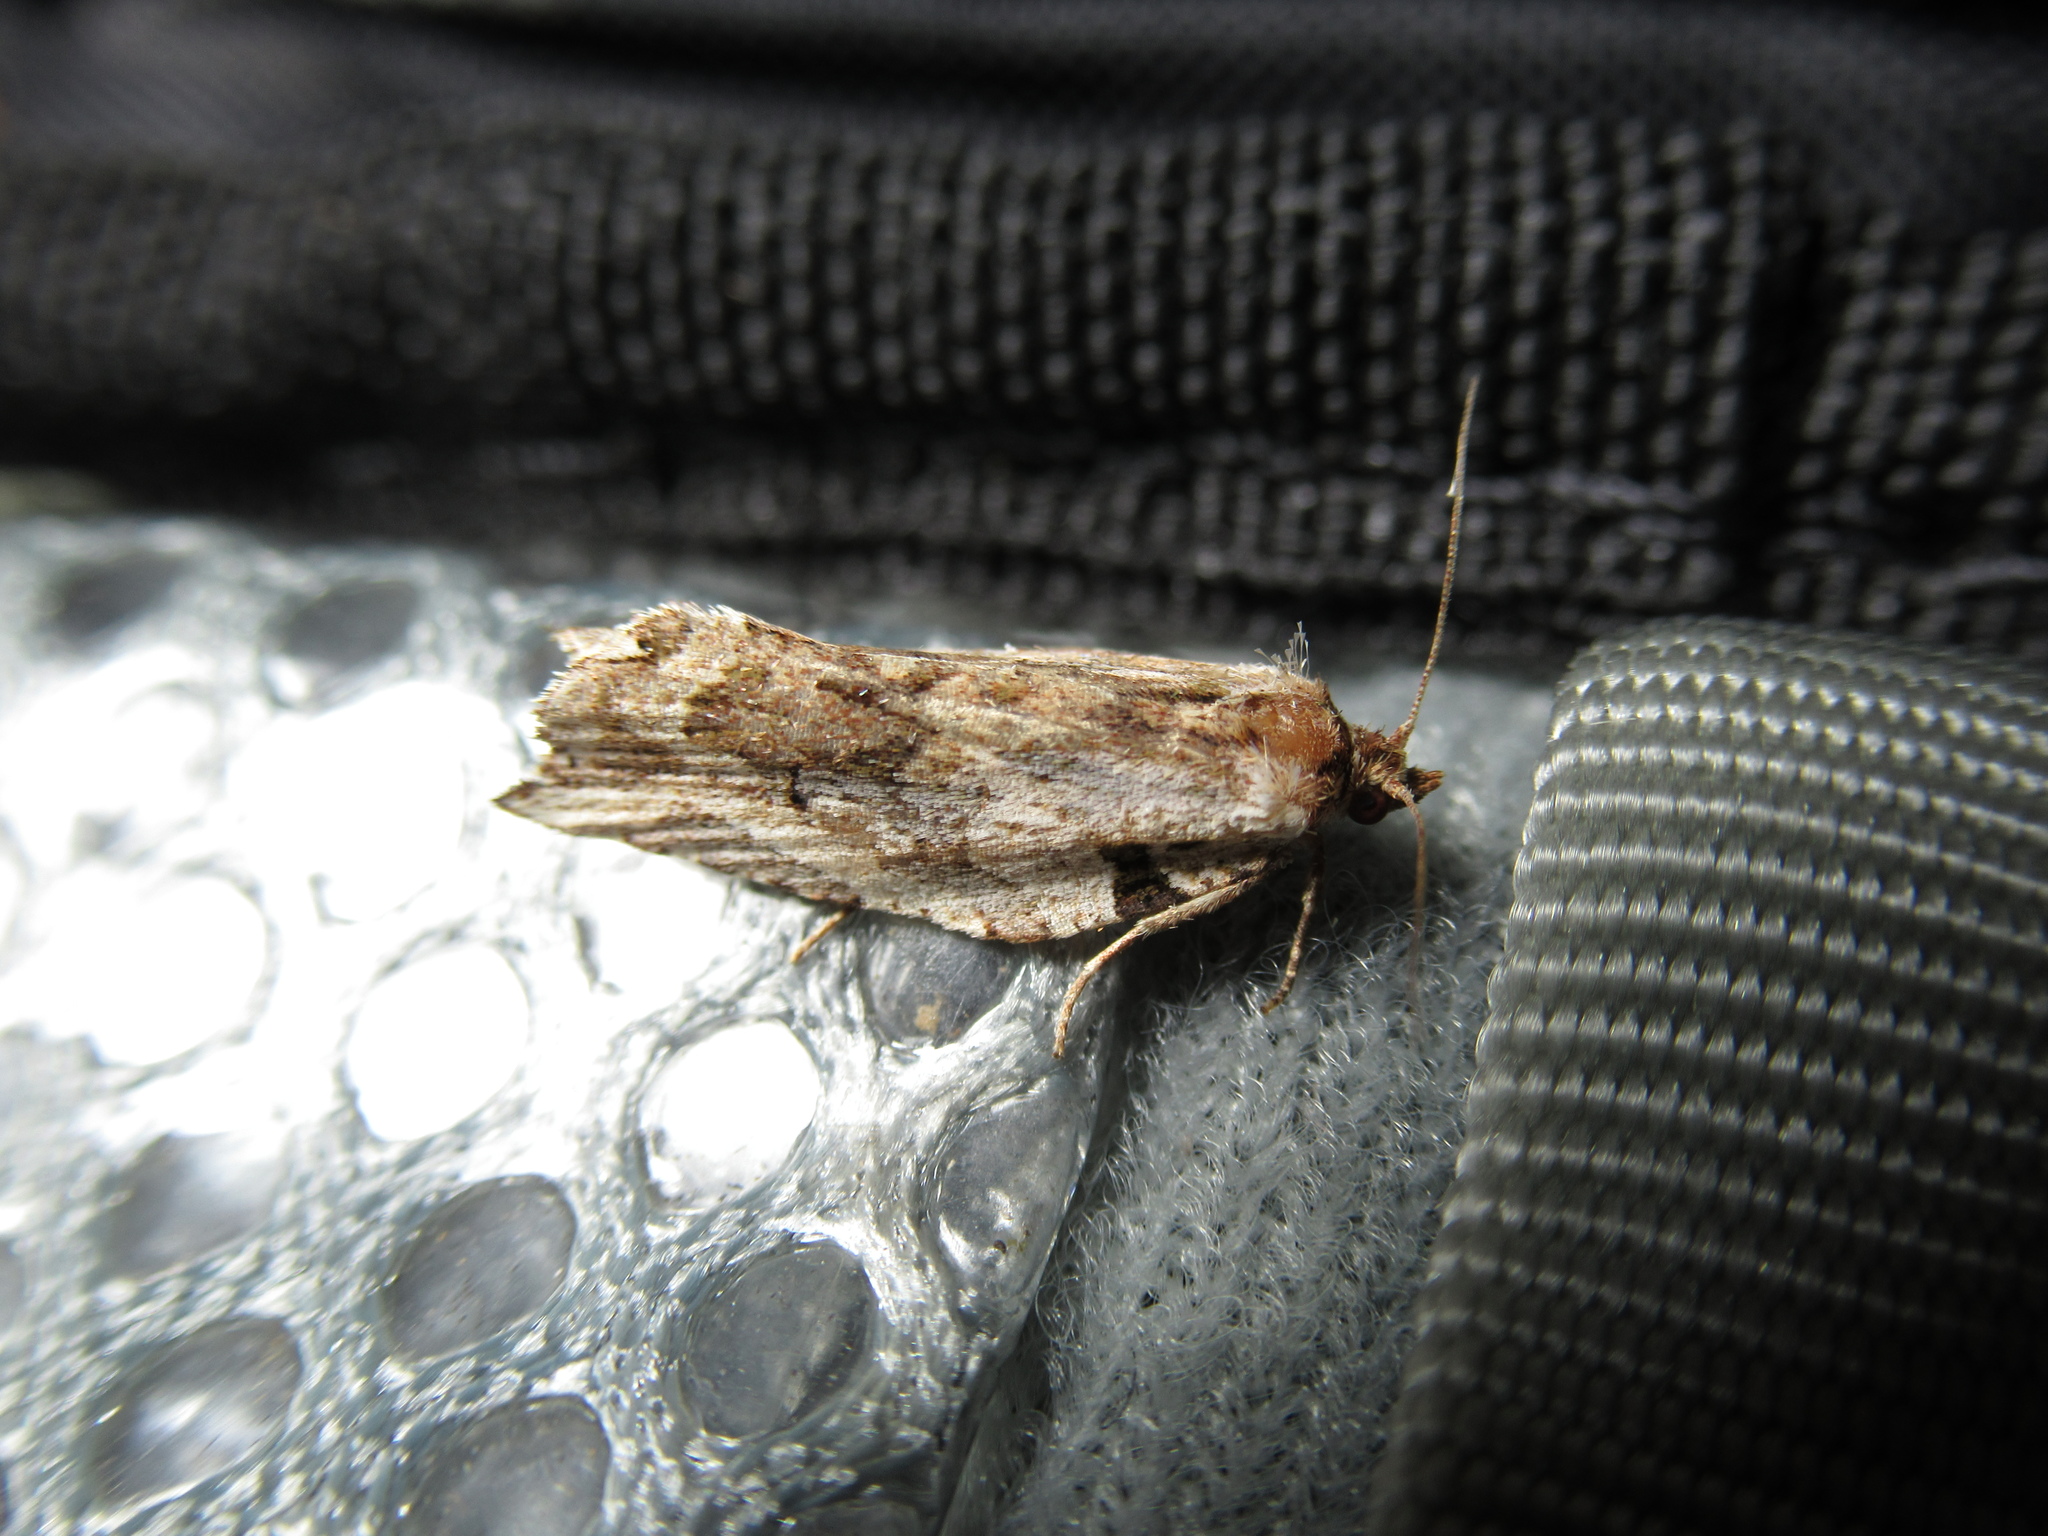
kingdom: Animalia
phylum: Arthropoda
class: Insecta
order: Lepidoptera
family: Tortricidae
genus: Epalxiphora
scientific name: Epalxiphora axenana
